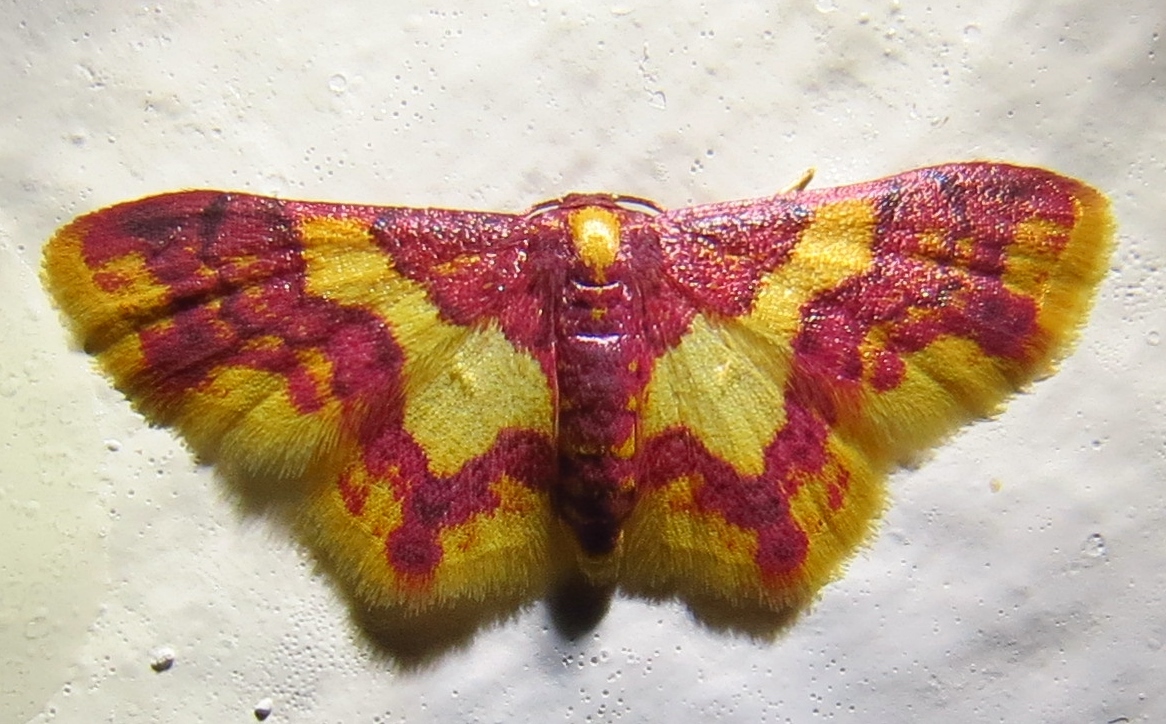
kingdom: Animalia
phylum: Arthropoda
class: Insecta
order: Lepidoptera
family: Geometridae
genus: Tricentrogyna
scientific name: Tricentrogyna vinacea
